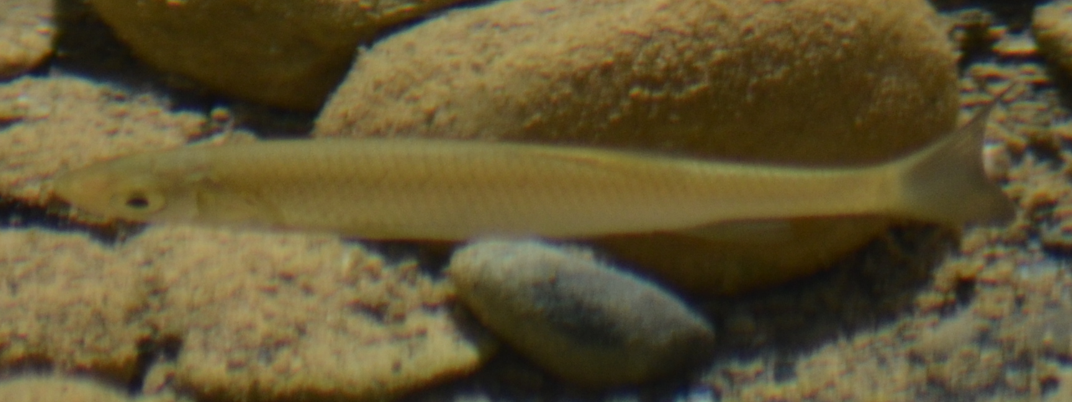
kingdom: Animalia
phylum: Chordata
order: Cypriniformes
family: Cyprinidae
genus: Squalius
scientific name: Squalius laietanus
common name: Catalan chub
